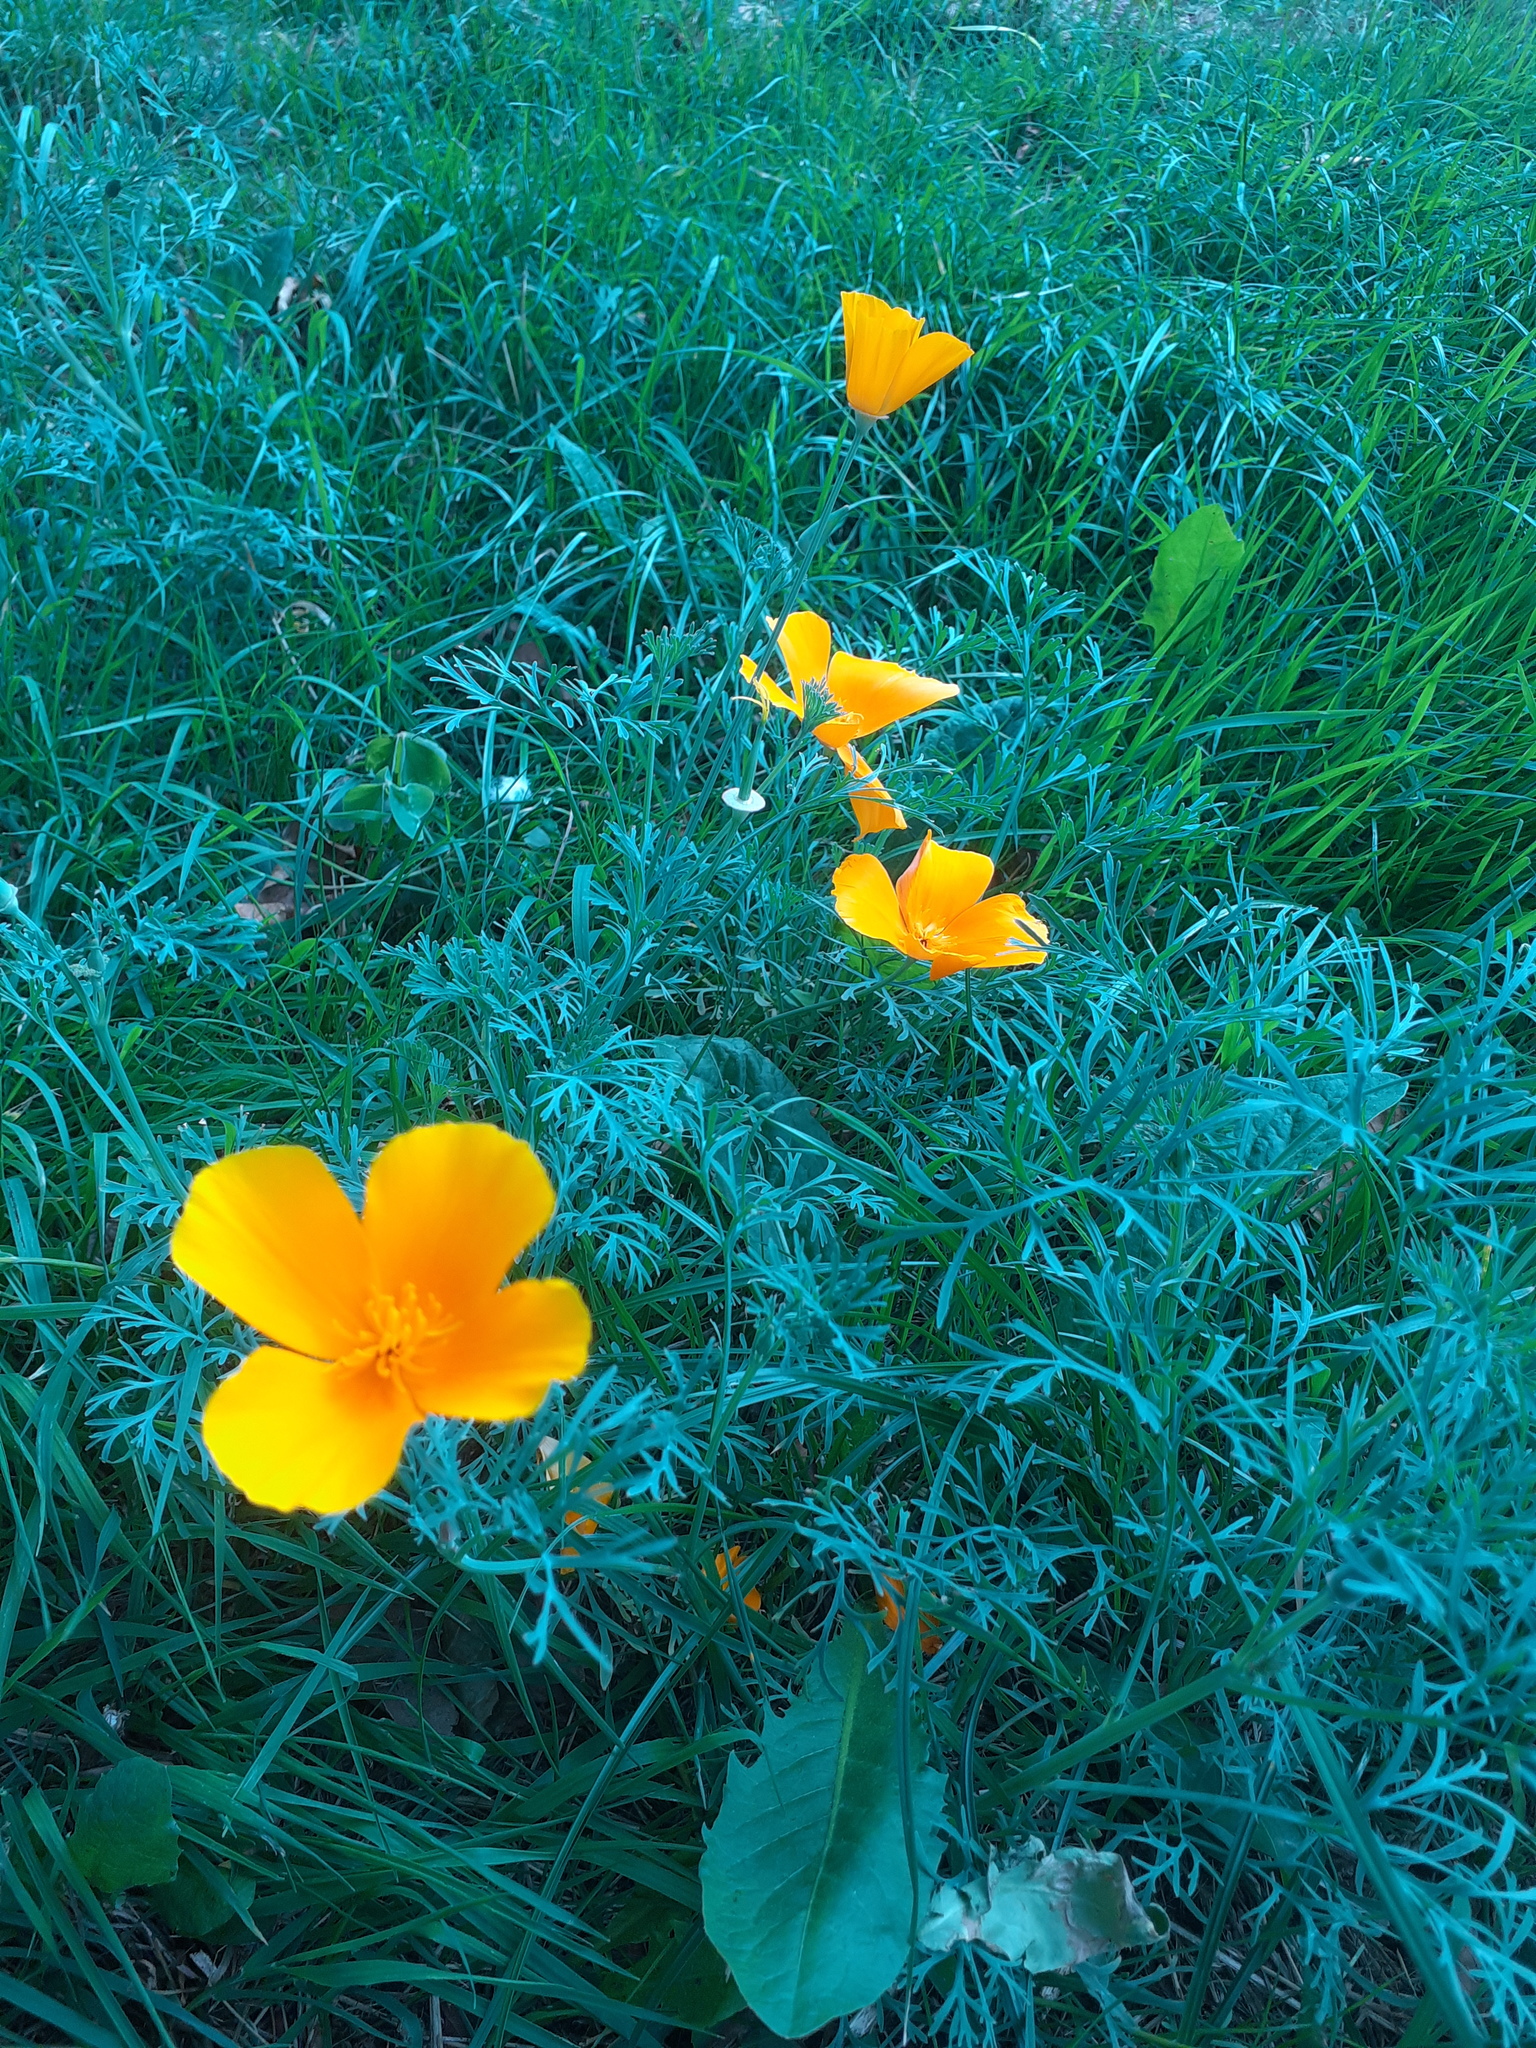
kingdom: Plantae
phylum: Tracheophyta
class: Magnoliopsida
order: Ranunculales
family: Papaveraceae
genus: Eschscholzia
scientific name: Eschscholzia californica
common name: California poppy
